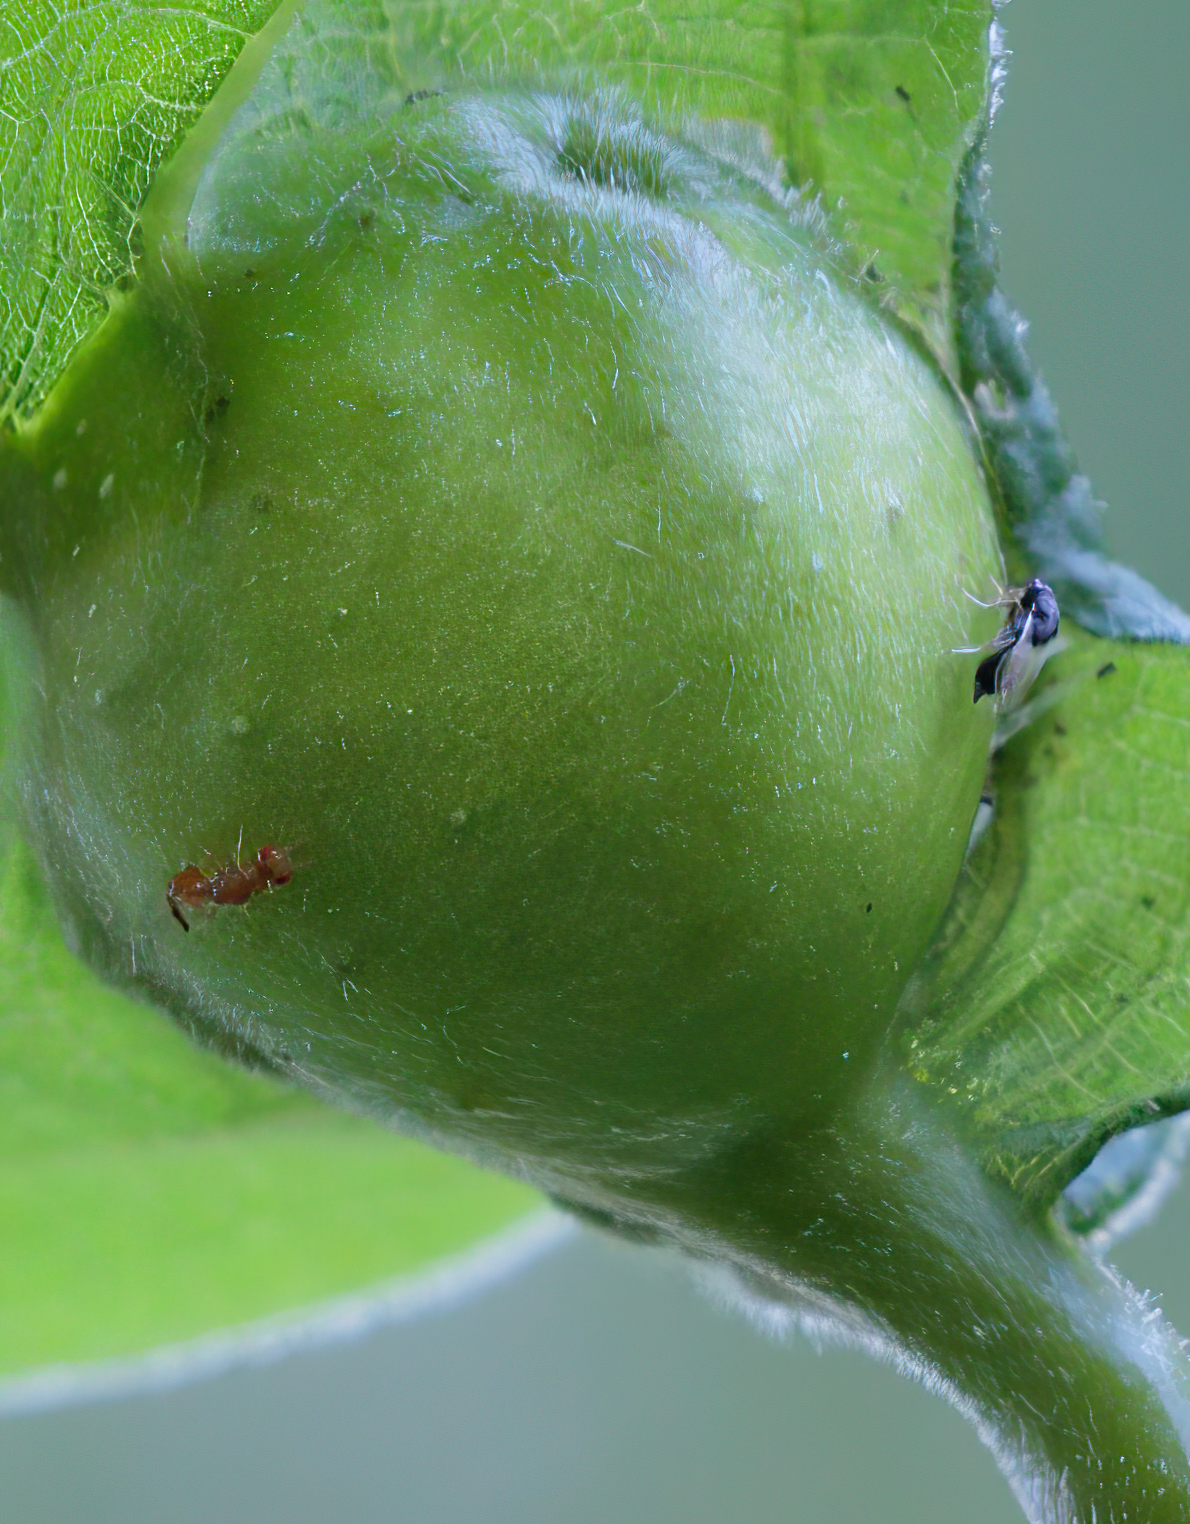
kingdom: Animalia
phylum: Arthropoda
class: Insecta
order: Hymenoptera
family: Cynipidae
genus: Andricus
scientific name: Andricus
